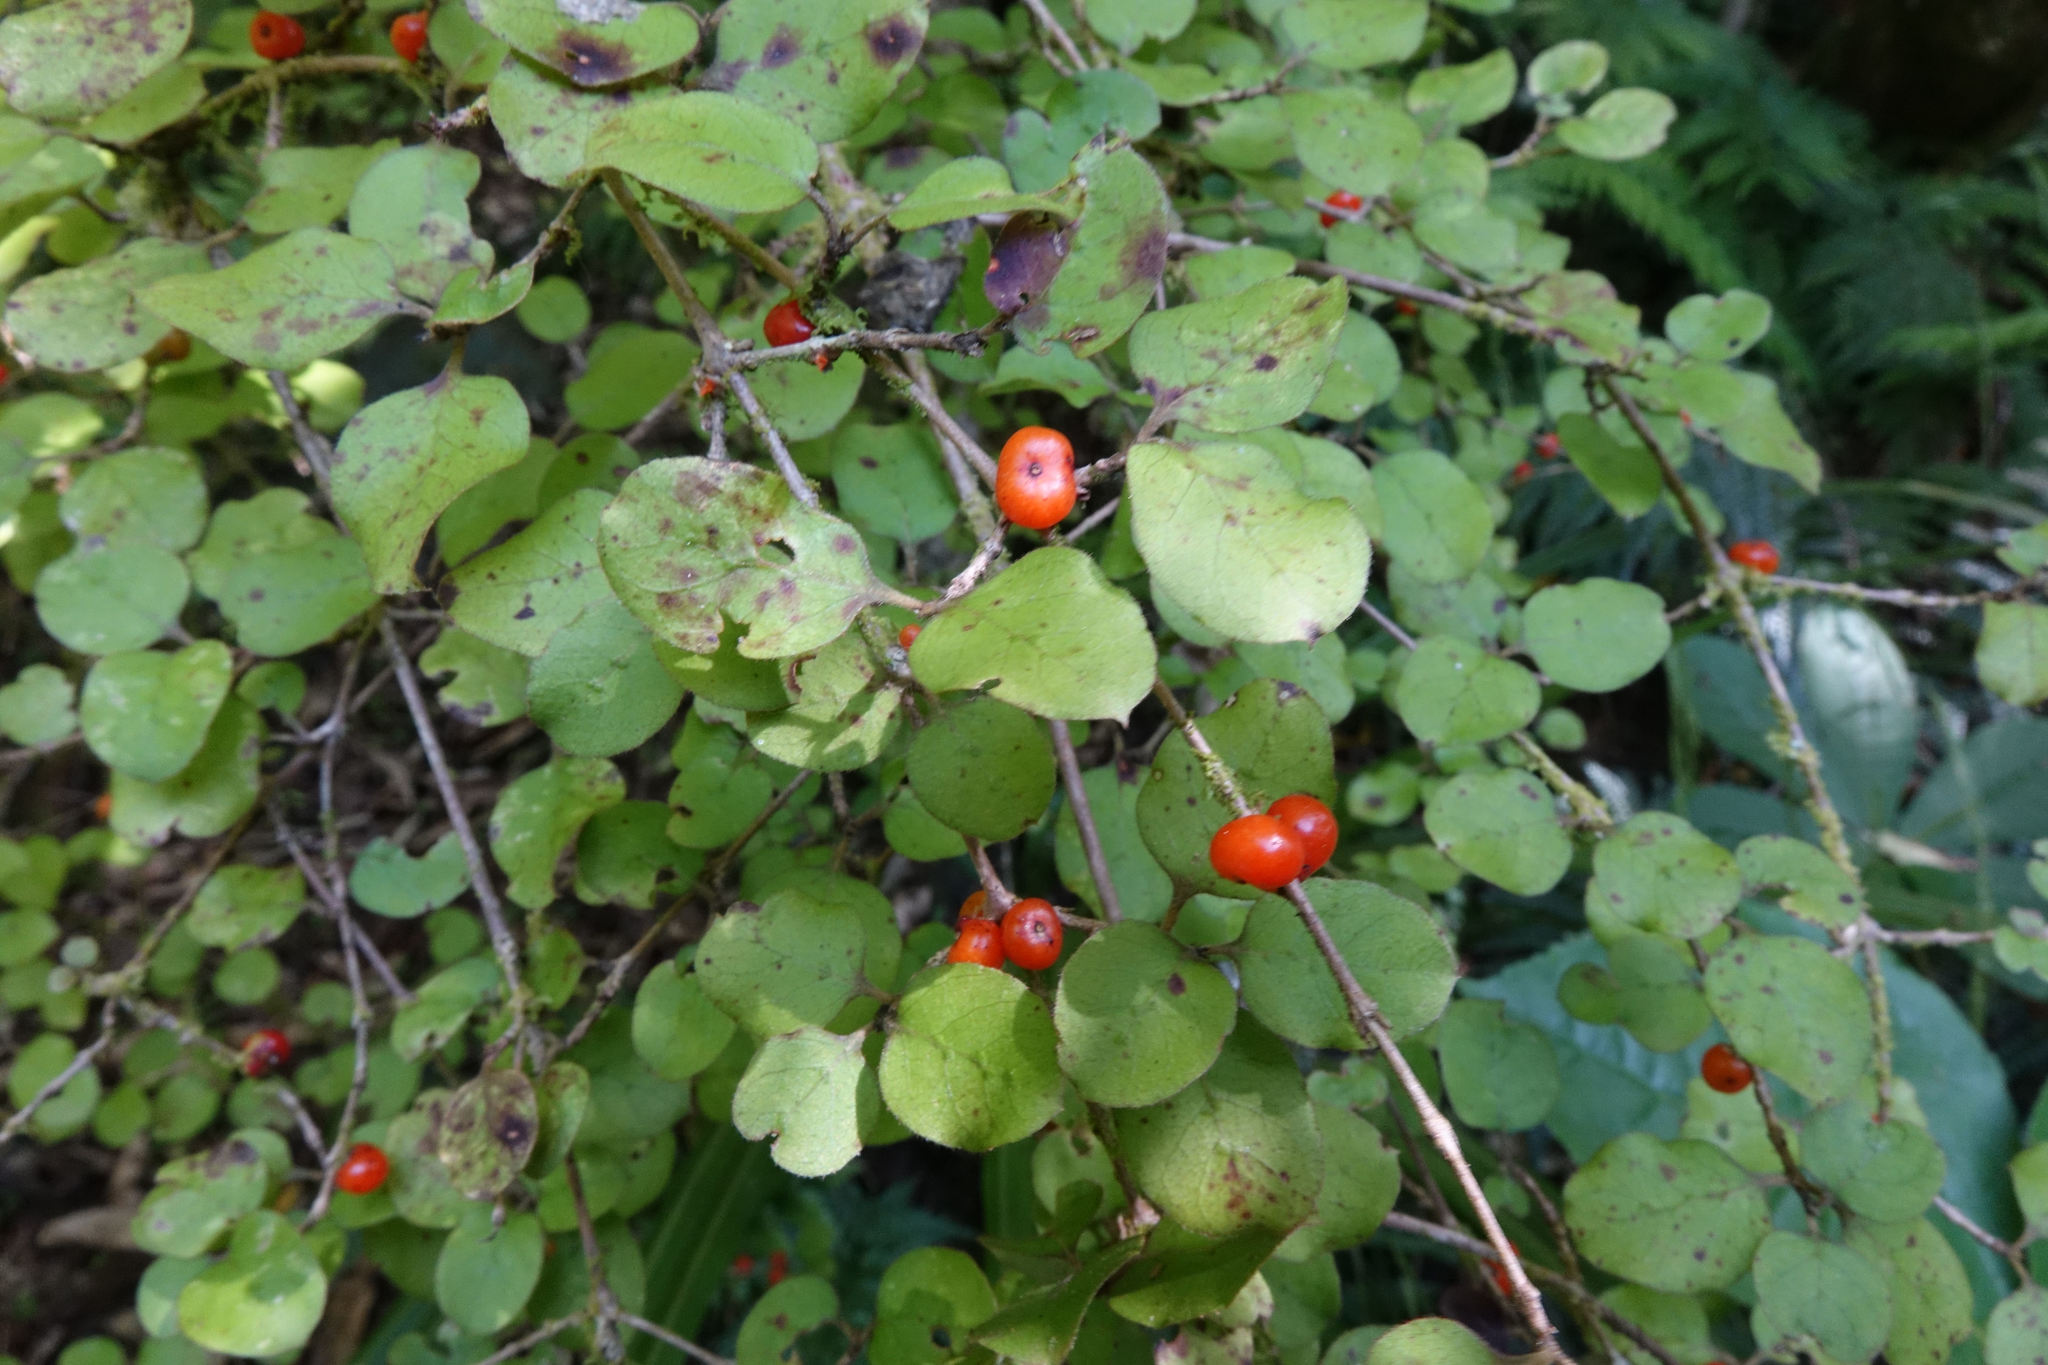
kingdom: Plantae
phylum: Tracheophyta
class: Magnoliopsida
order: Gentianales
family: Rubiaceae
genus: Coprosma
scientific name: Coprosma rotundifolia
